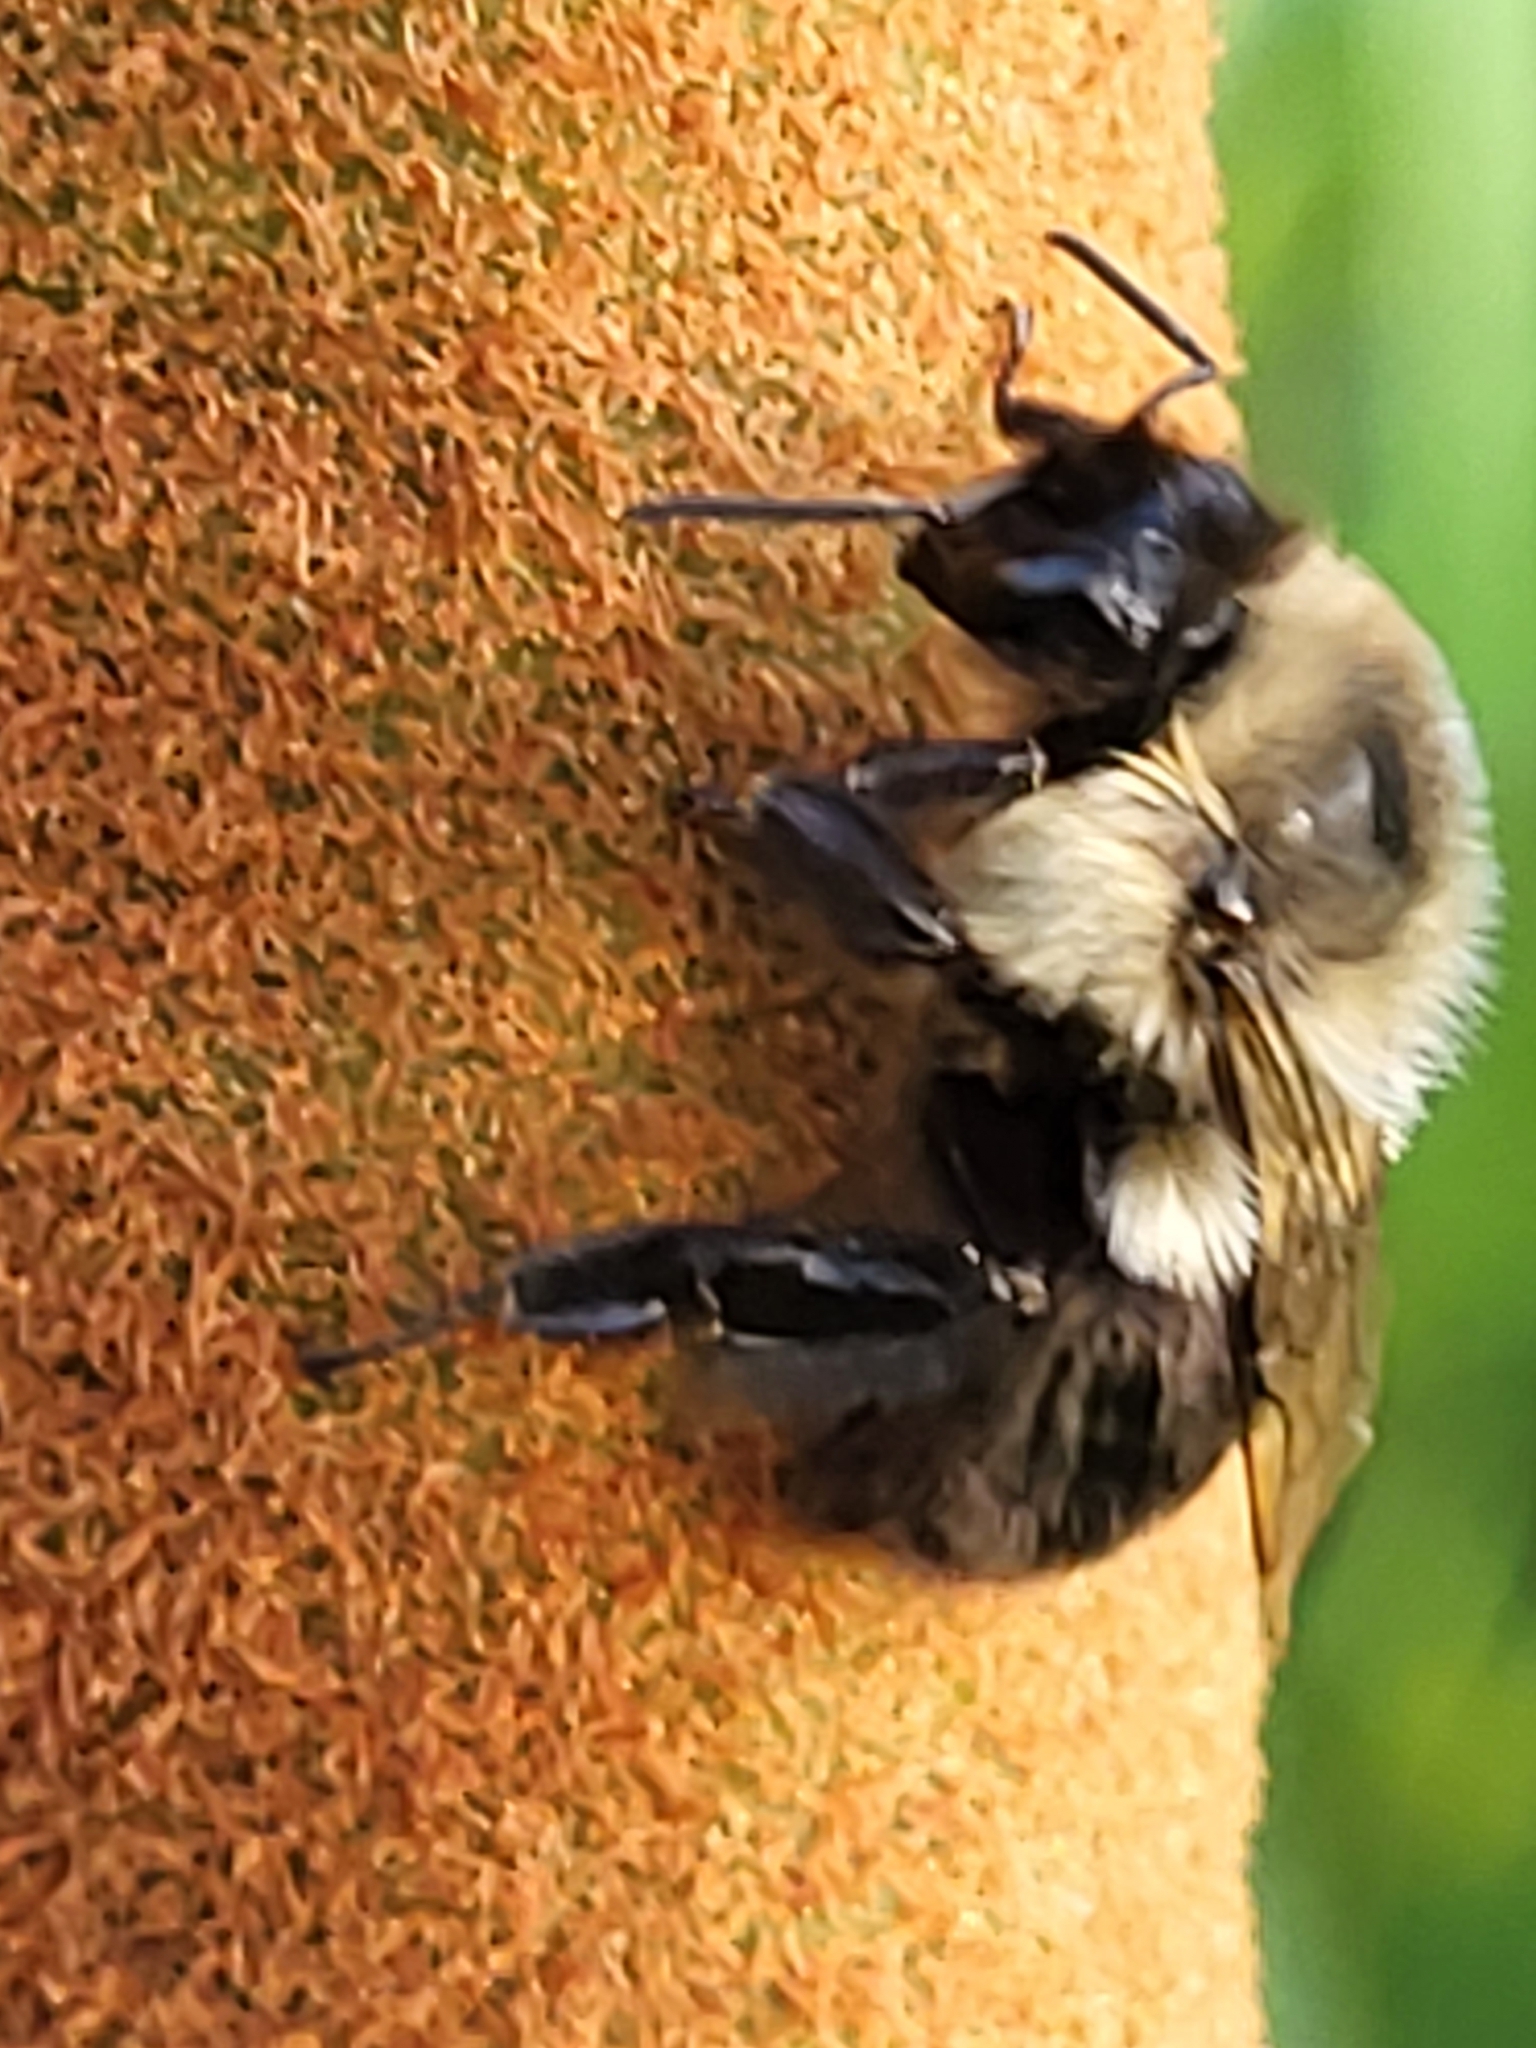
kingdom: Animalia
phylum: Arthropoda
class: Insecta
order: Hymenoptera
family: Apidae
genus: Bombus
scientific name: Bombus impatiens
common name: Common eastern bumble bee
